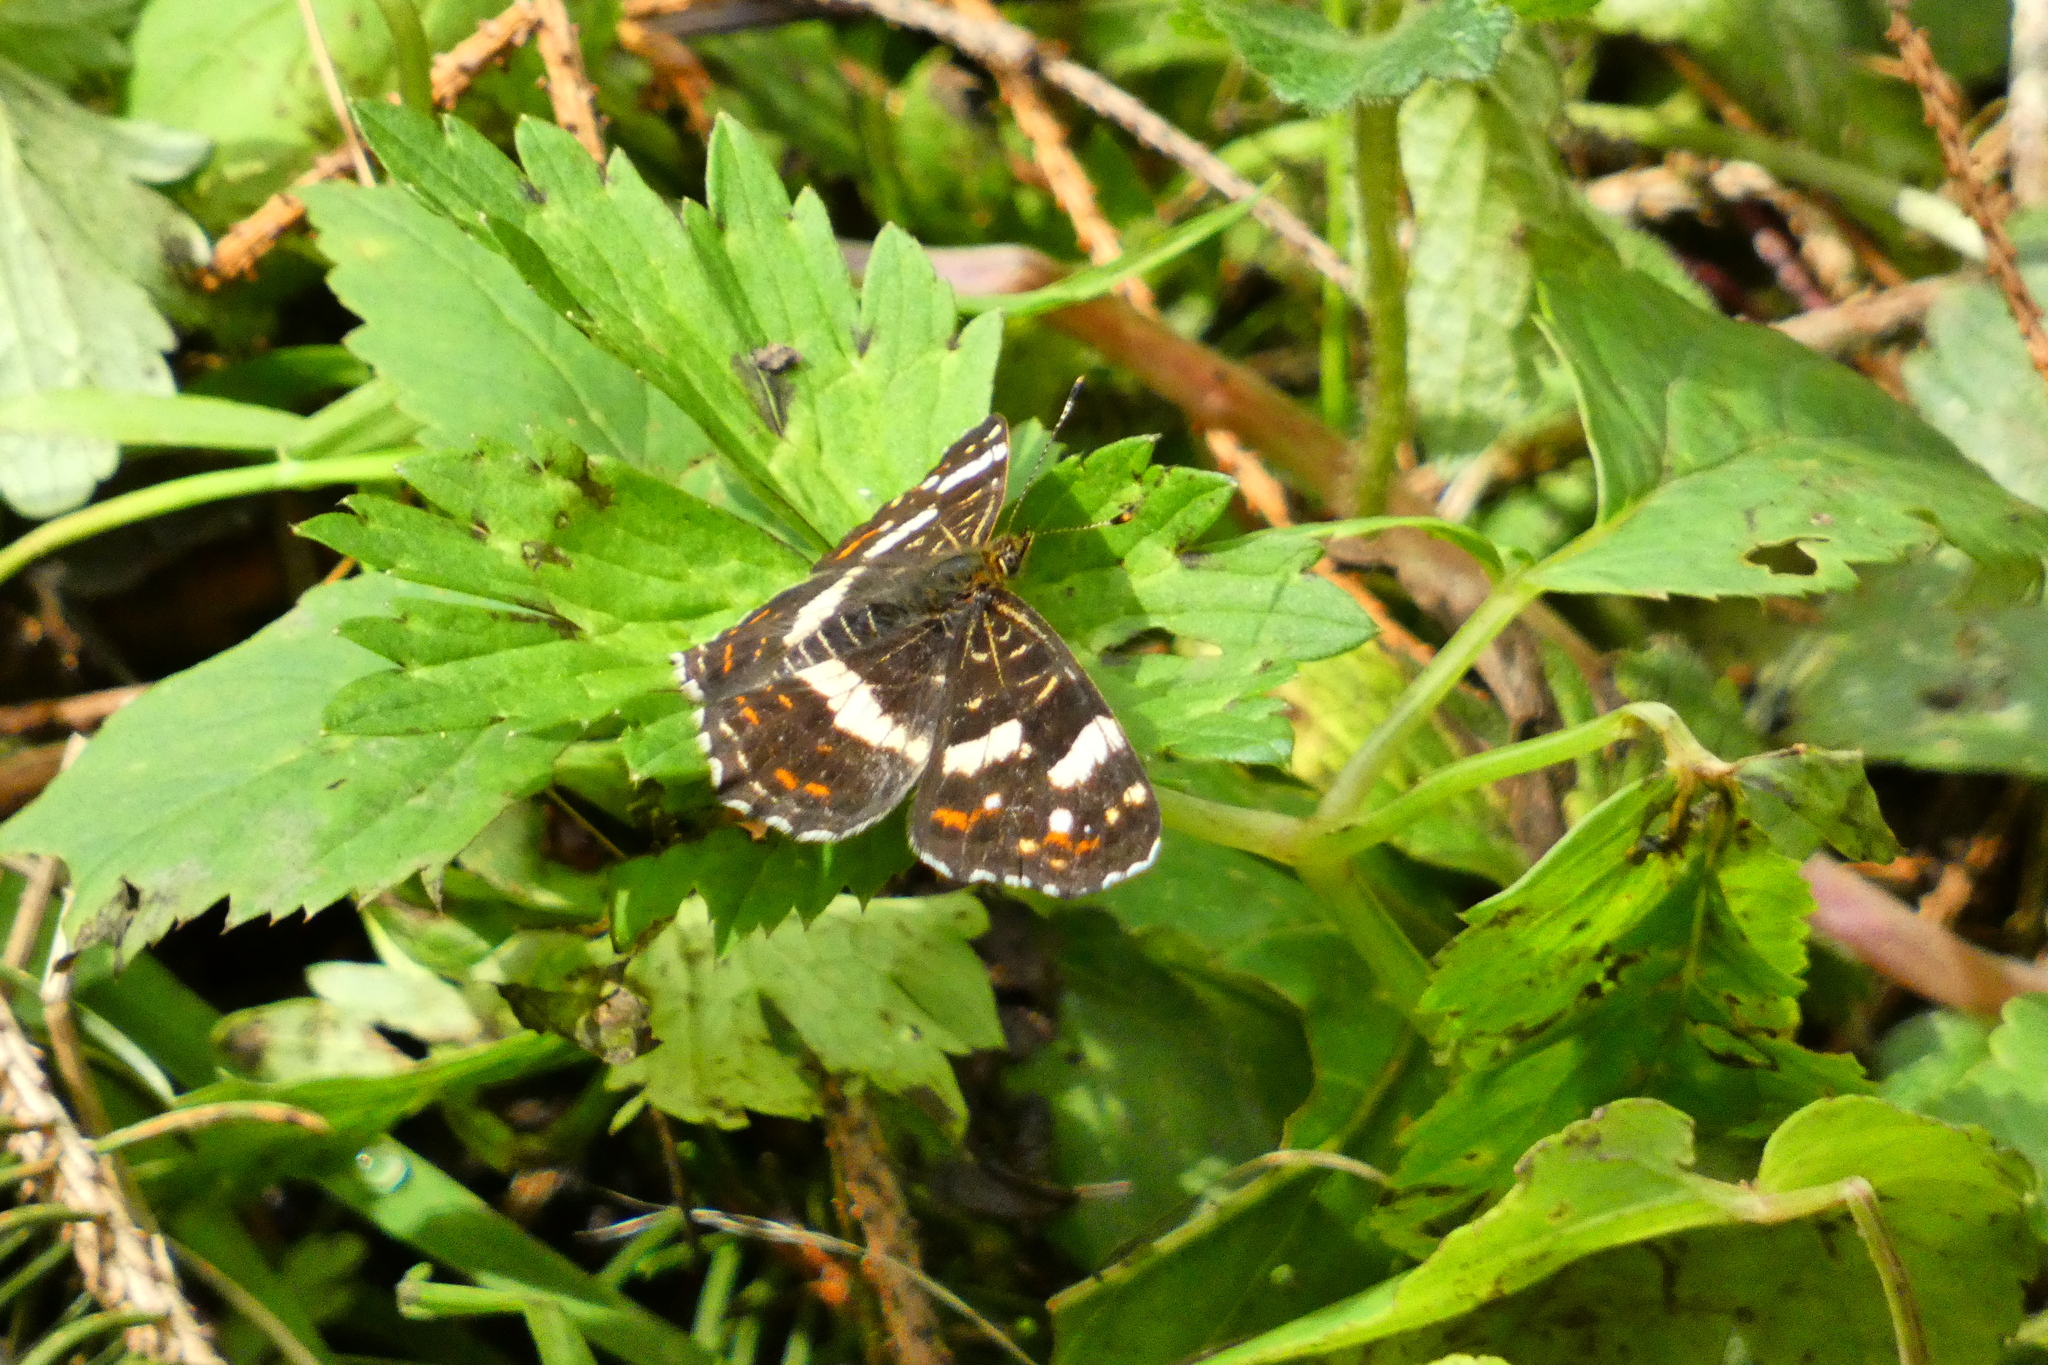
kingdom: Animalia
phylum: Arthropoda
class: Insecta
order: Lepidoptera
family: Nymphalidae
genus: Araschnia
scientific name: Araschnia levana
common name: Map butterfly
